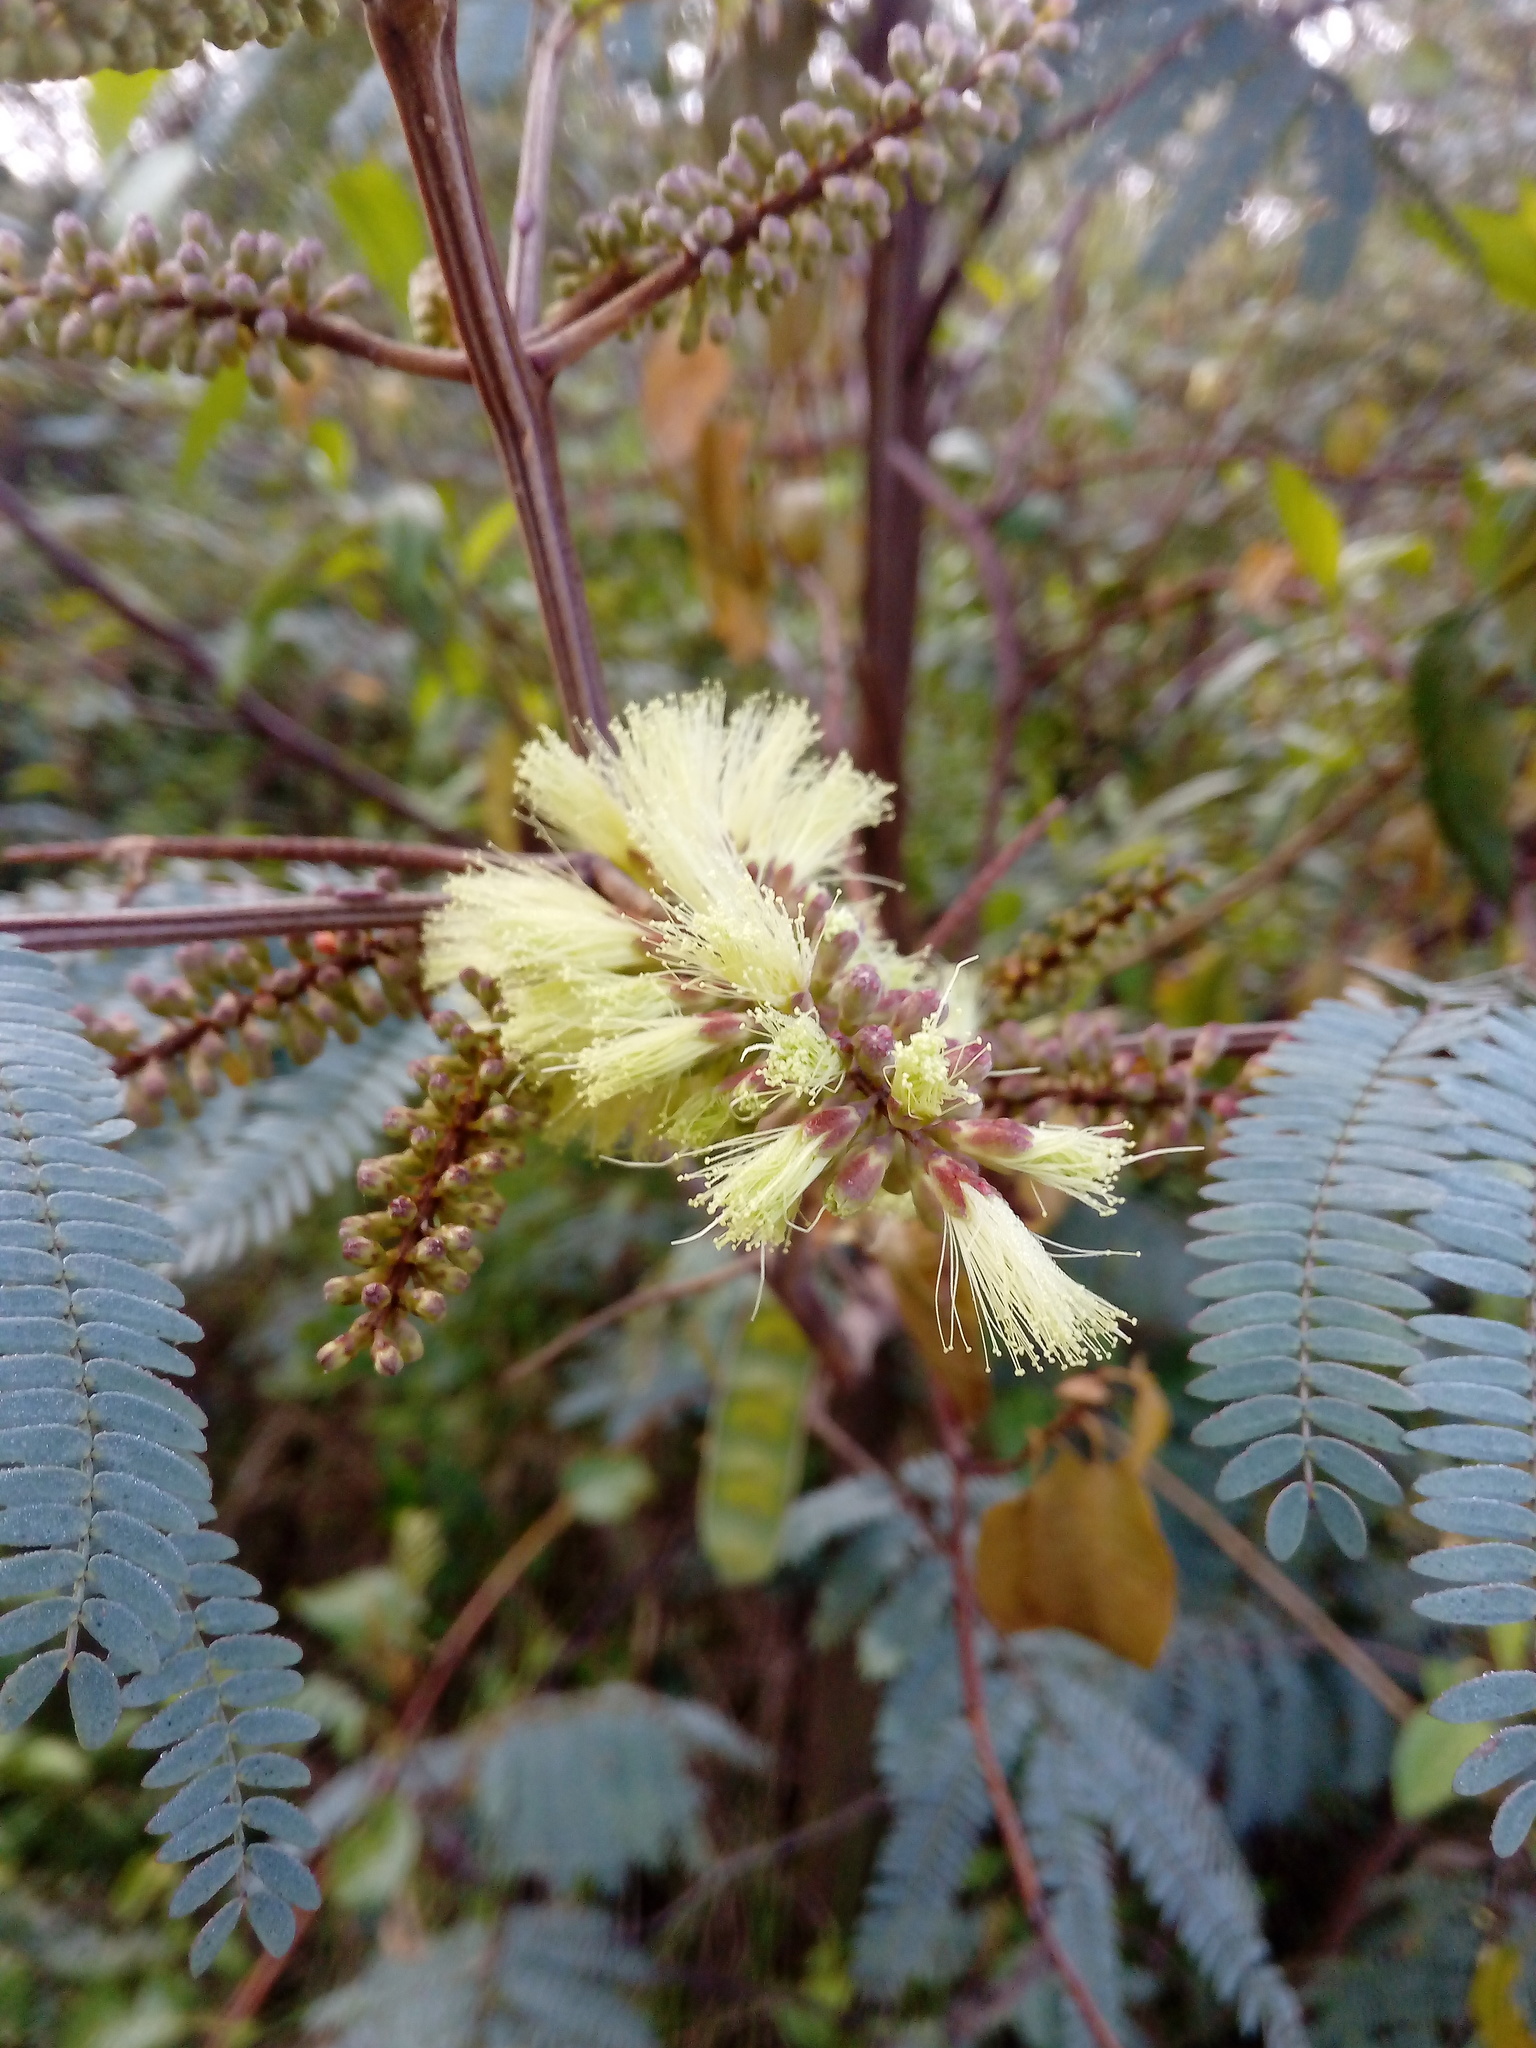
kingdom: Plantae
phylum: Tracheophyta
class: Magnoliopsida
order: Fabales
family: Fabaceae
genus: Paraserianthes
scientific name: Paraserianthes lophantha
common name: Plume albizia
